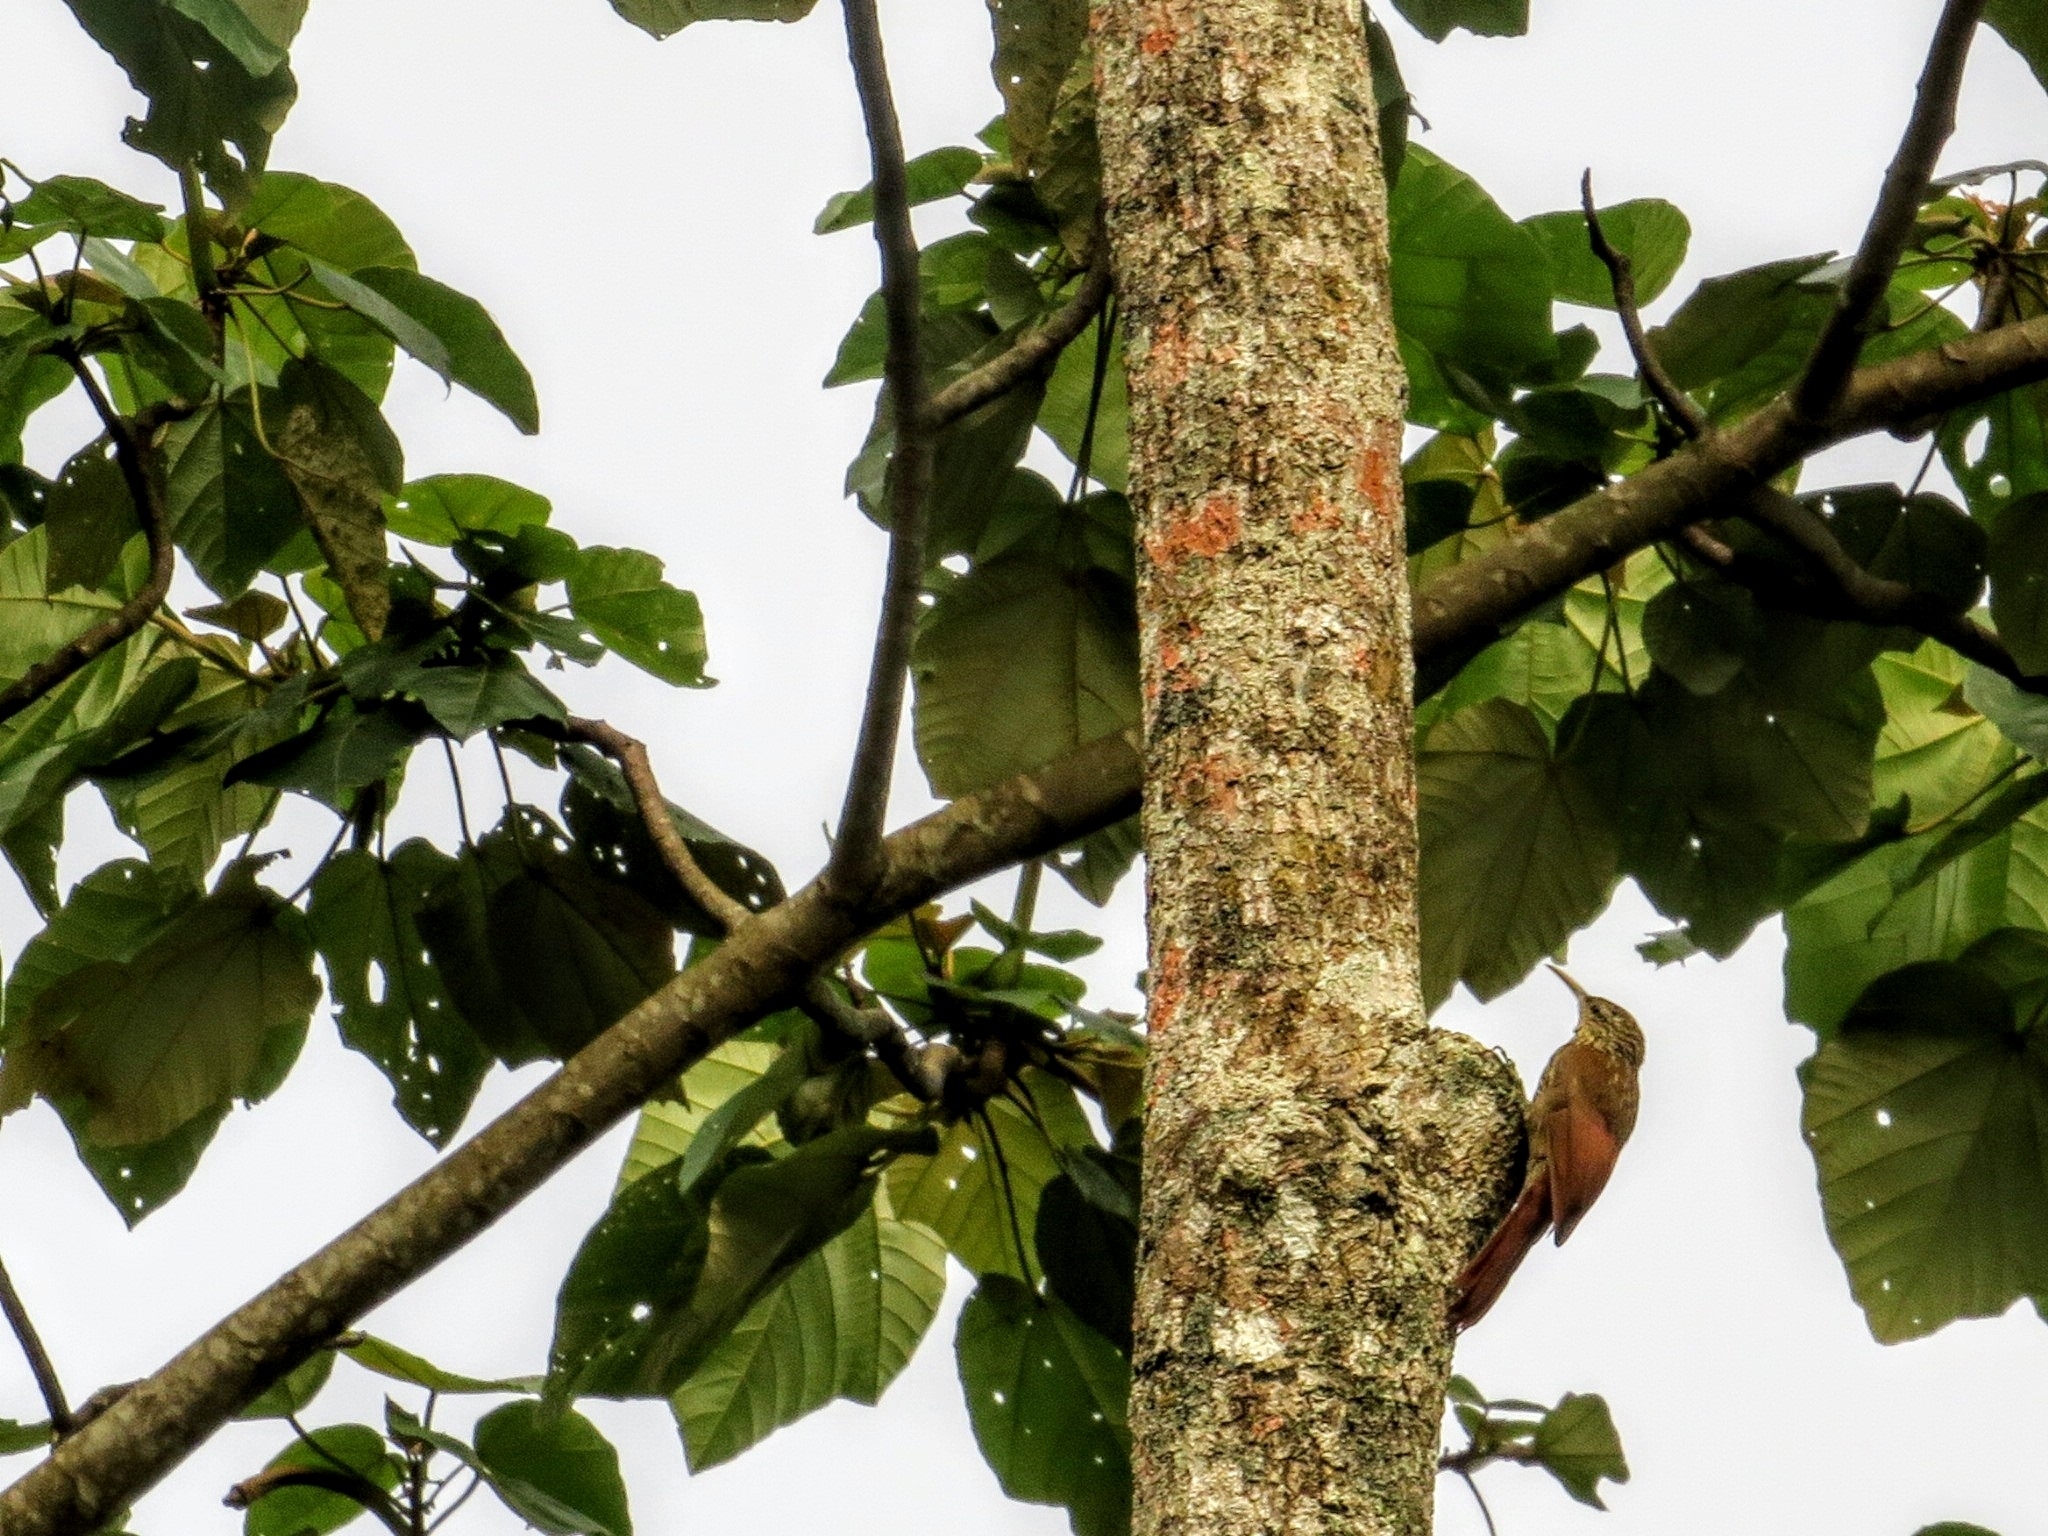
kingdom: Animalia
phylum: Chordata
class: Aves
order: Passeriformes
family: Furnariidae
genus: Lepidocolaptes
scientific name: Lepidocolaptes souleyetii
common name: Streak-headed woodcreeper
